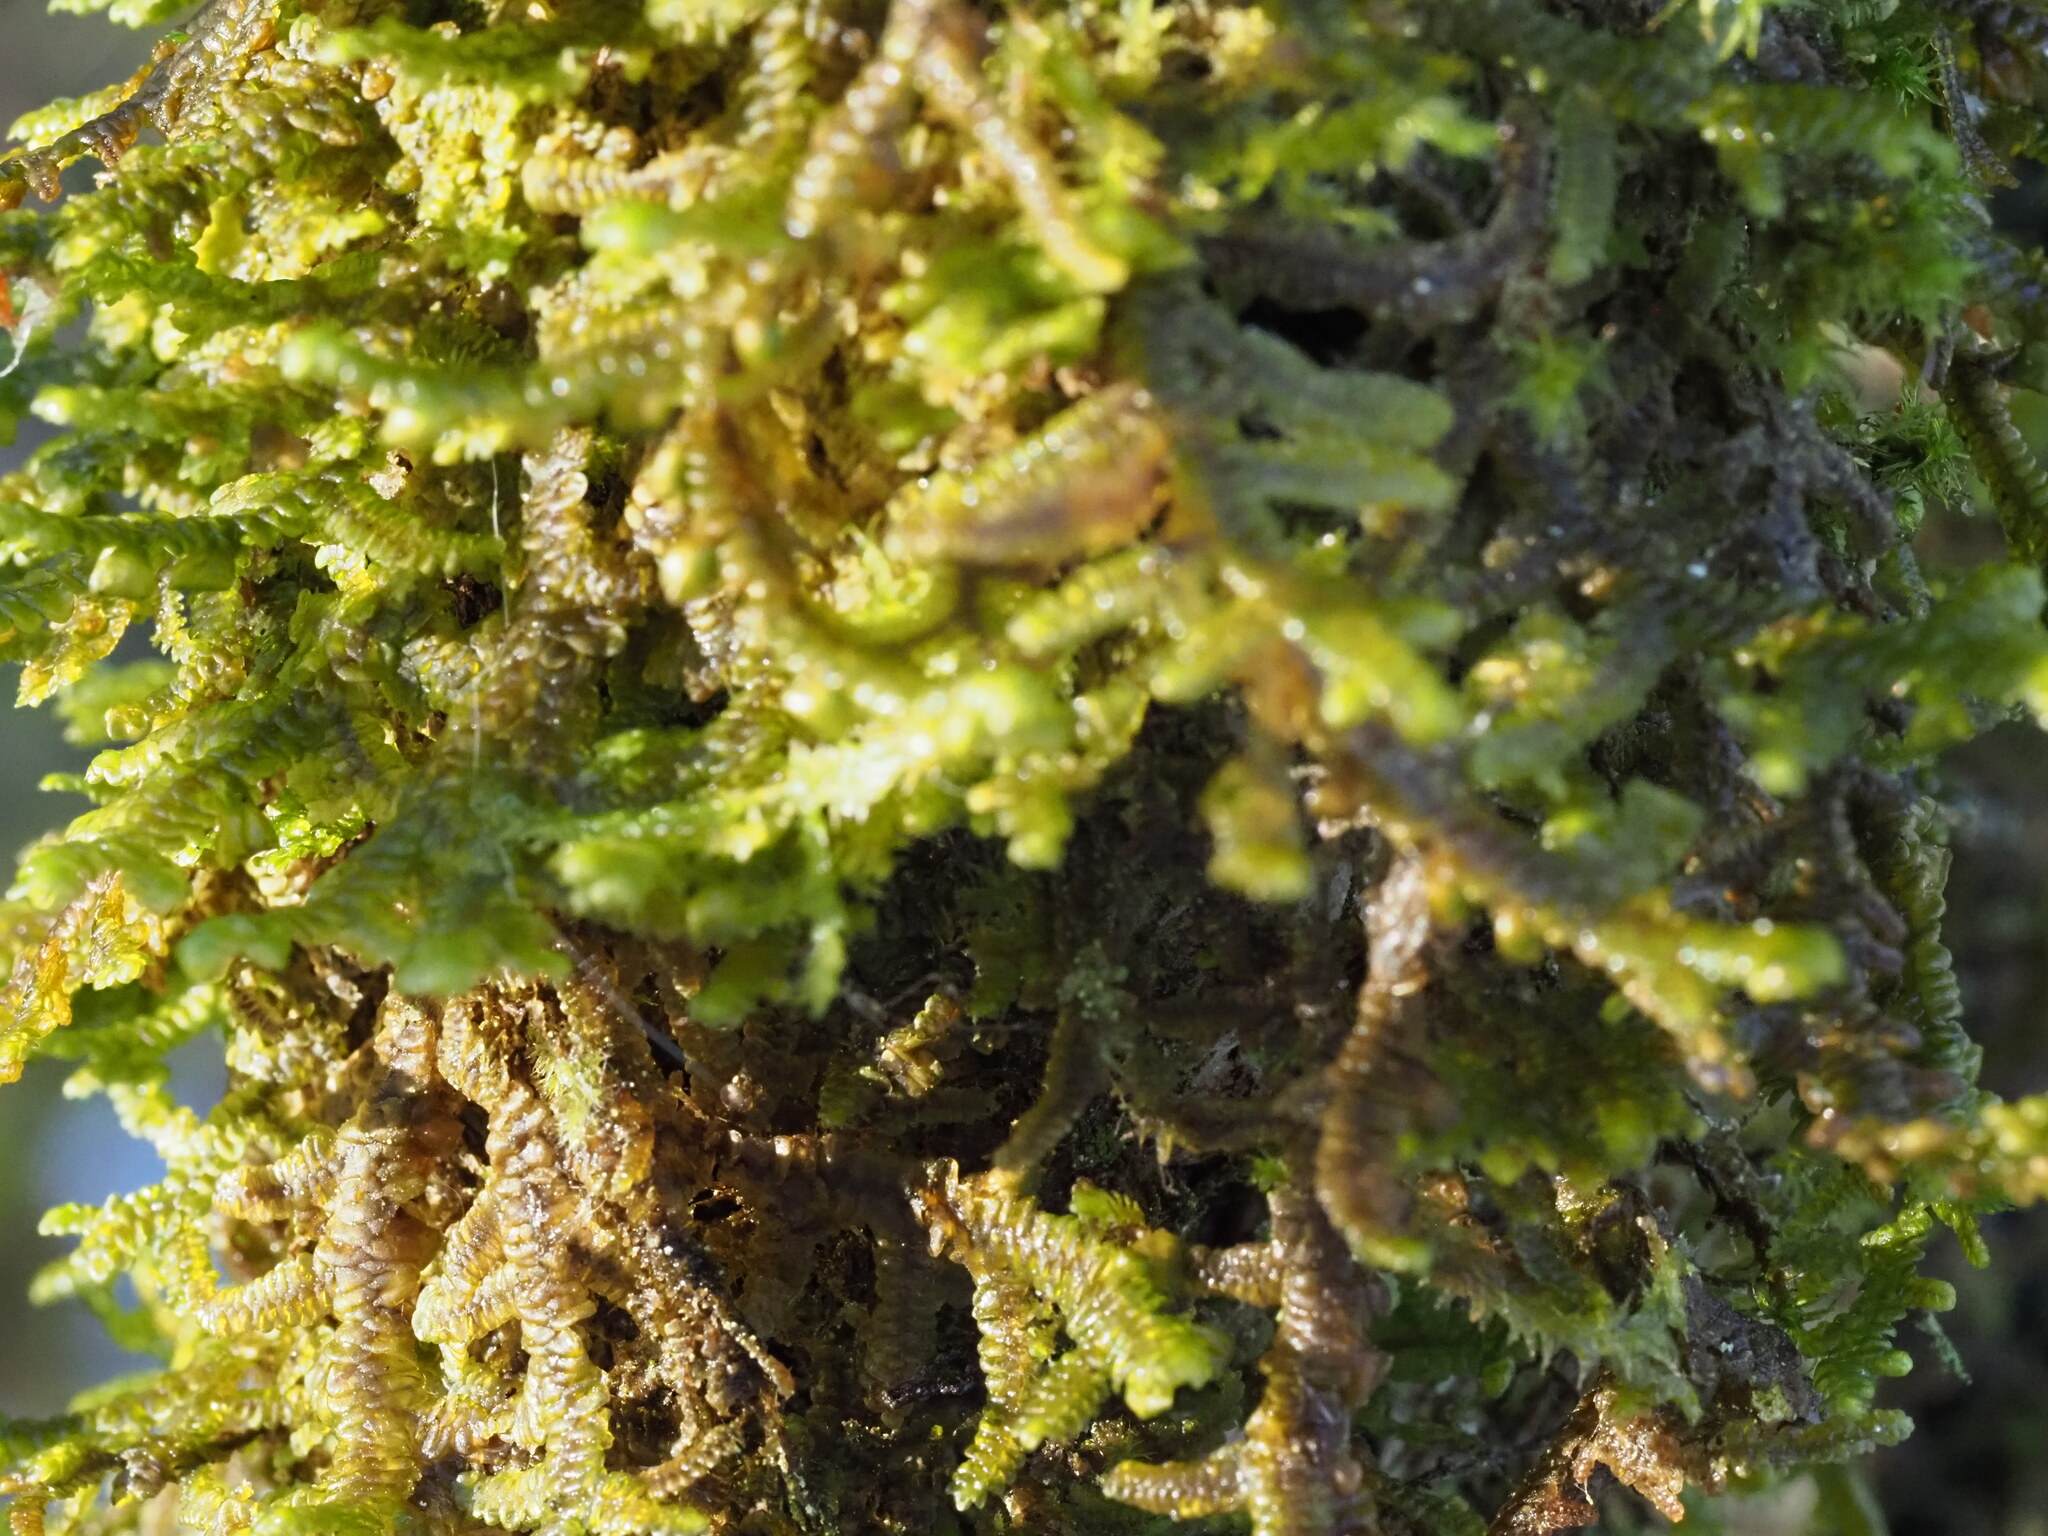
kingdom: Plantae
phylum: Marchantiophyta
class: Jungermanniopsida
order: Porellales
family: Porellaceae
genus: Porella
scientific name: Porella navicularis
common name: Tree ruffle liverwort
